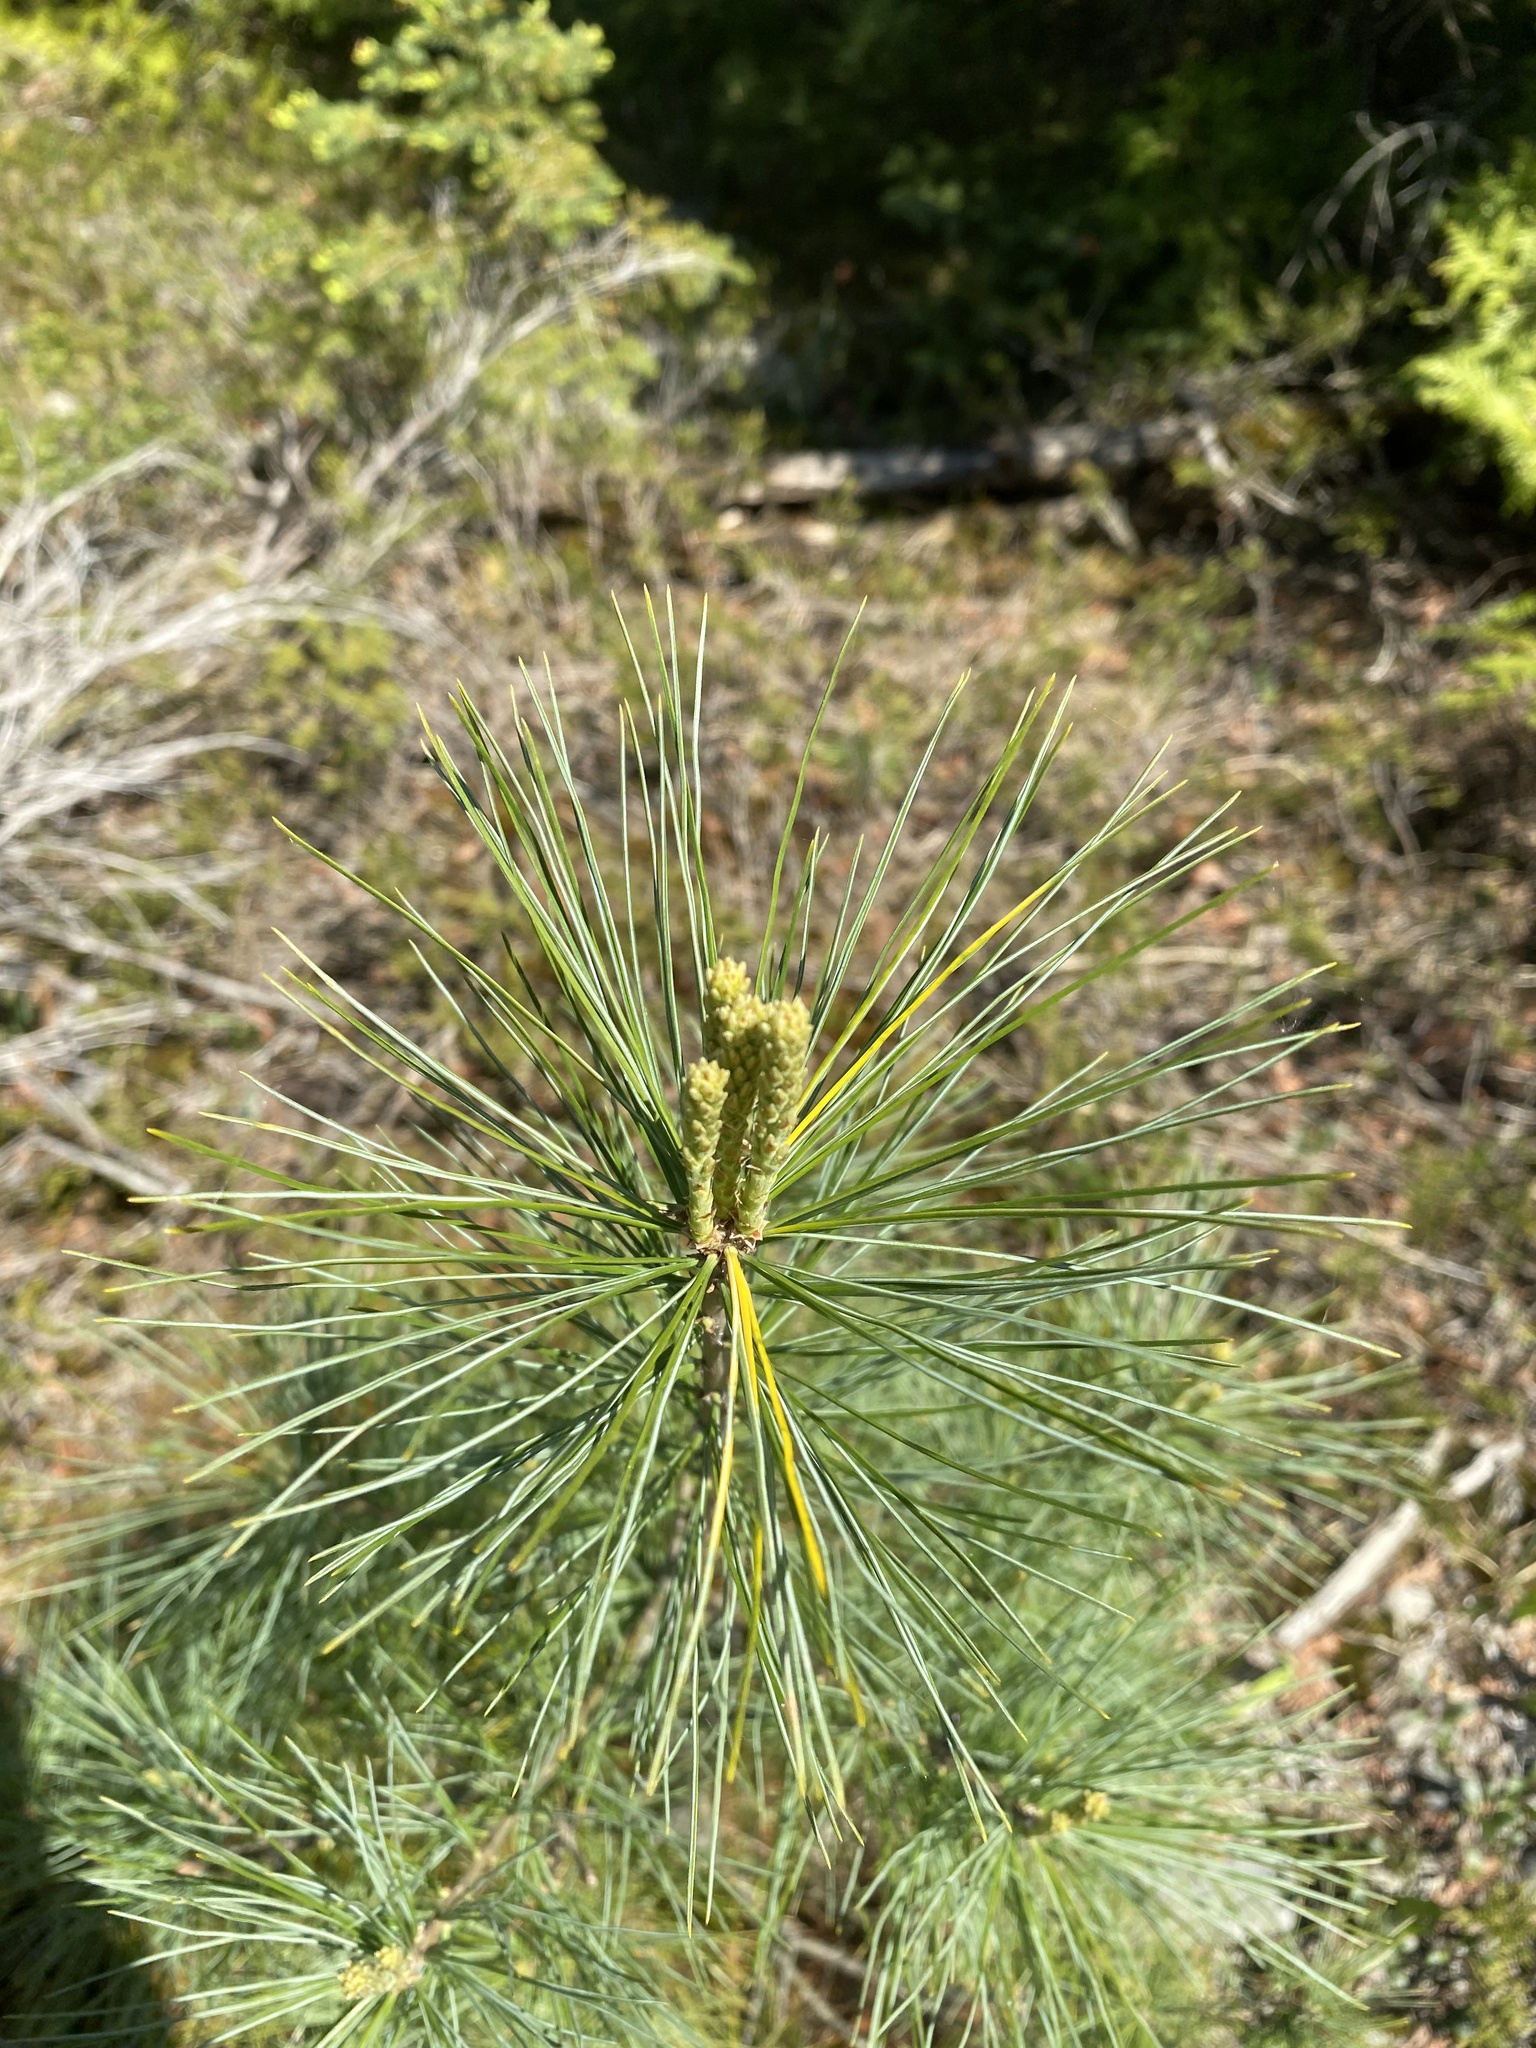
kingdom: Plantae
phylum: Tracheophyta
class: Pinopsida
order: Pinales
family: Pinaceae
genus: Pinus
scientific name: Pinus strobus
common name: Weymouth pine
